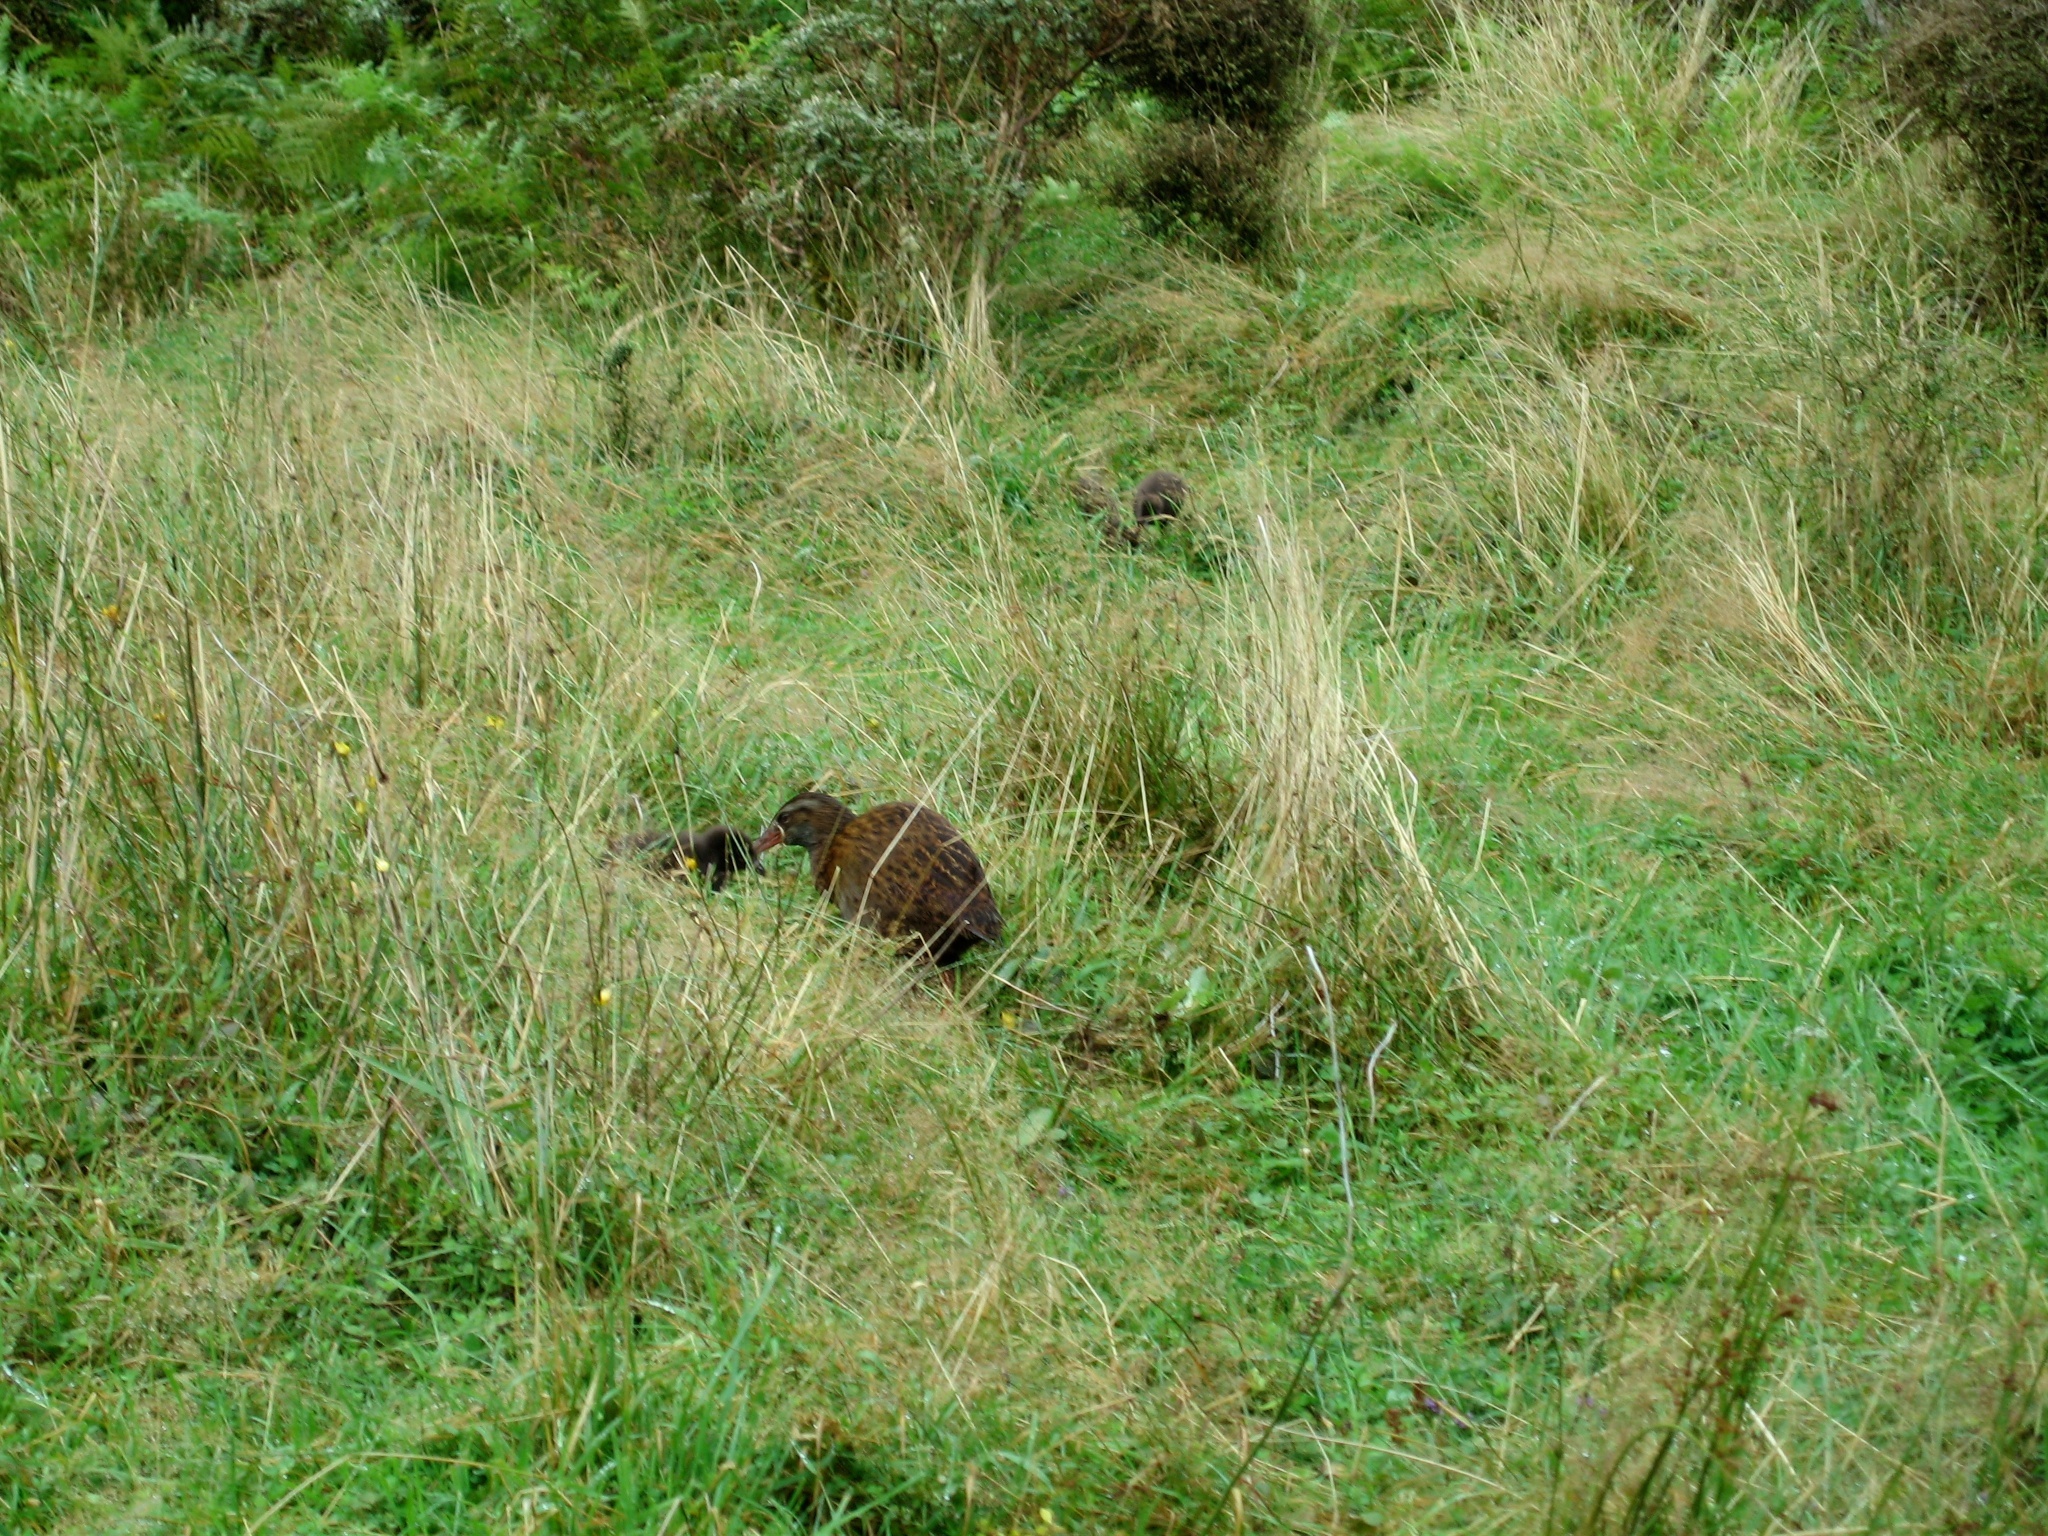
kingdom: Animalia
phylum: Chordata
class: Aves
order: Gruiformes
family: Rallidae
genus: Gallirallus
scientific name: Gallirallus australis
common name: Weka
